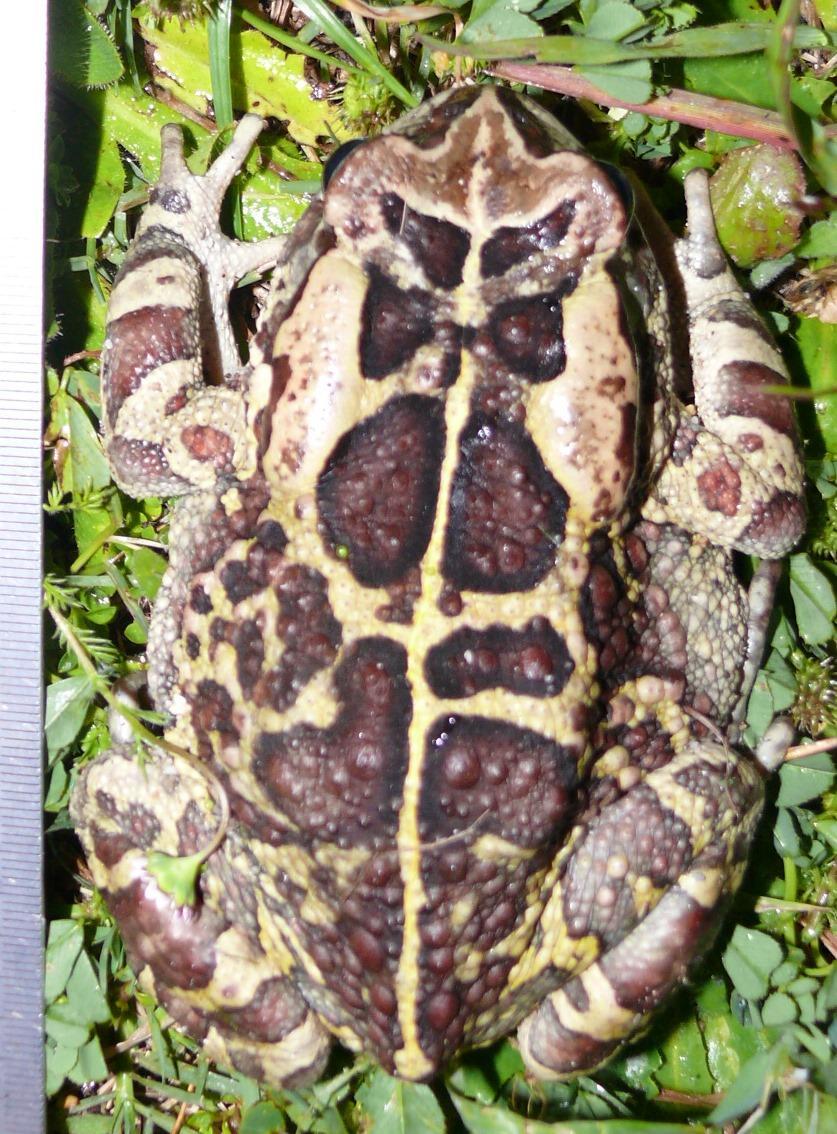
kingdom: Animalia
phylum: Chordata
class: Amphibia
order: Anura
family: Bufonidae
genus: Sclerophrys
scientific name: Sclerophrys pantherina
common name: Panther toad
